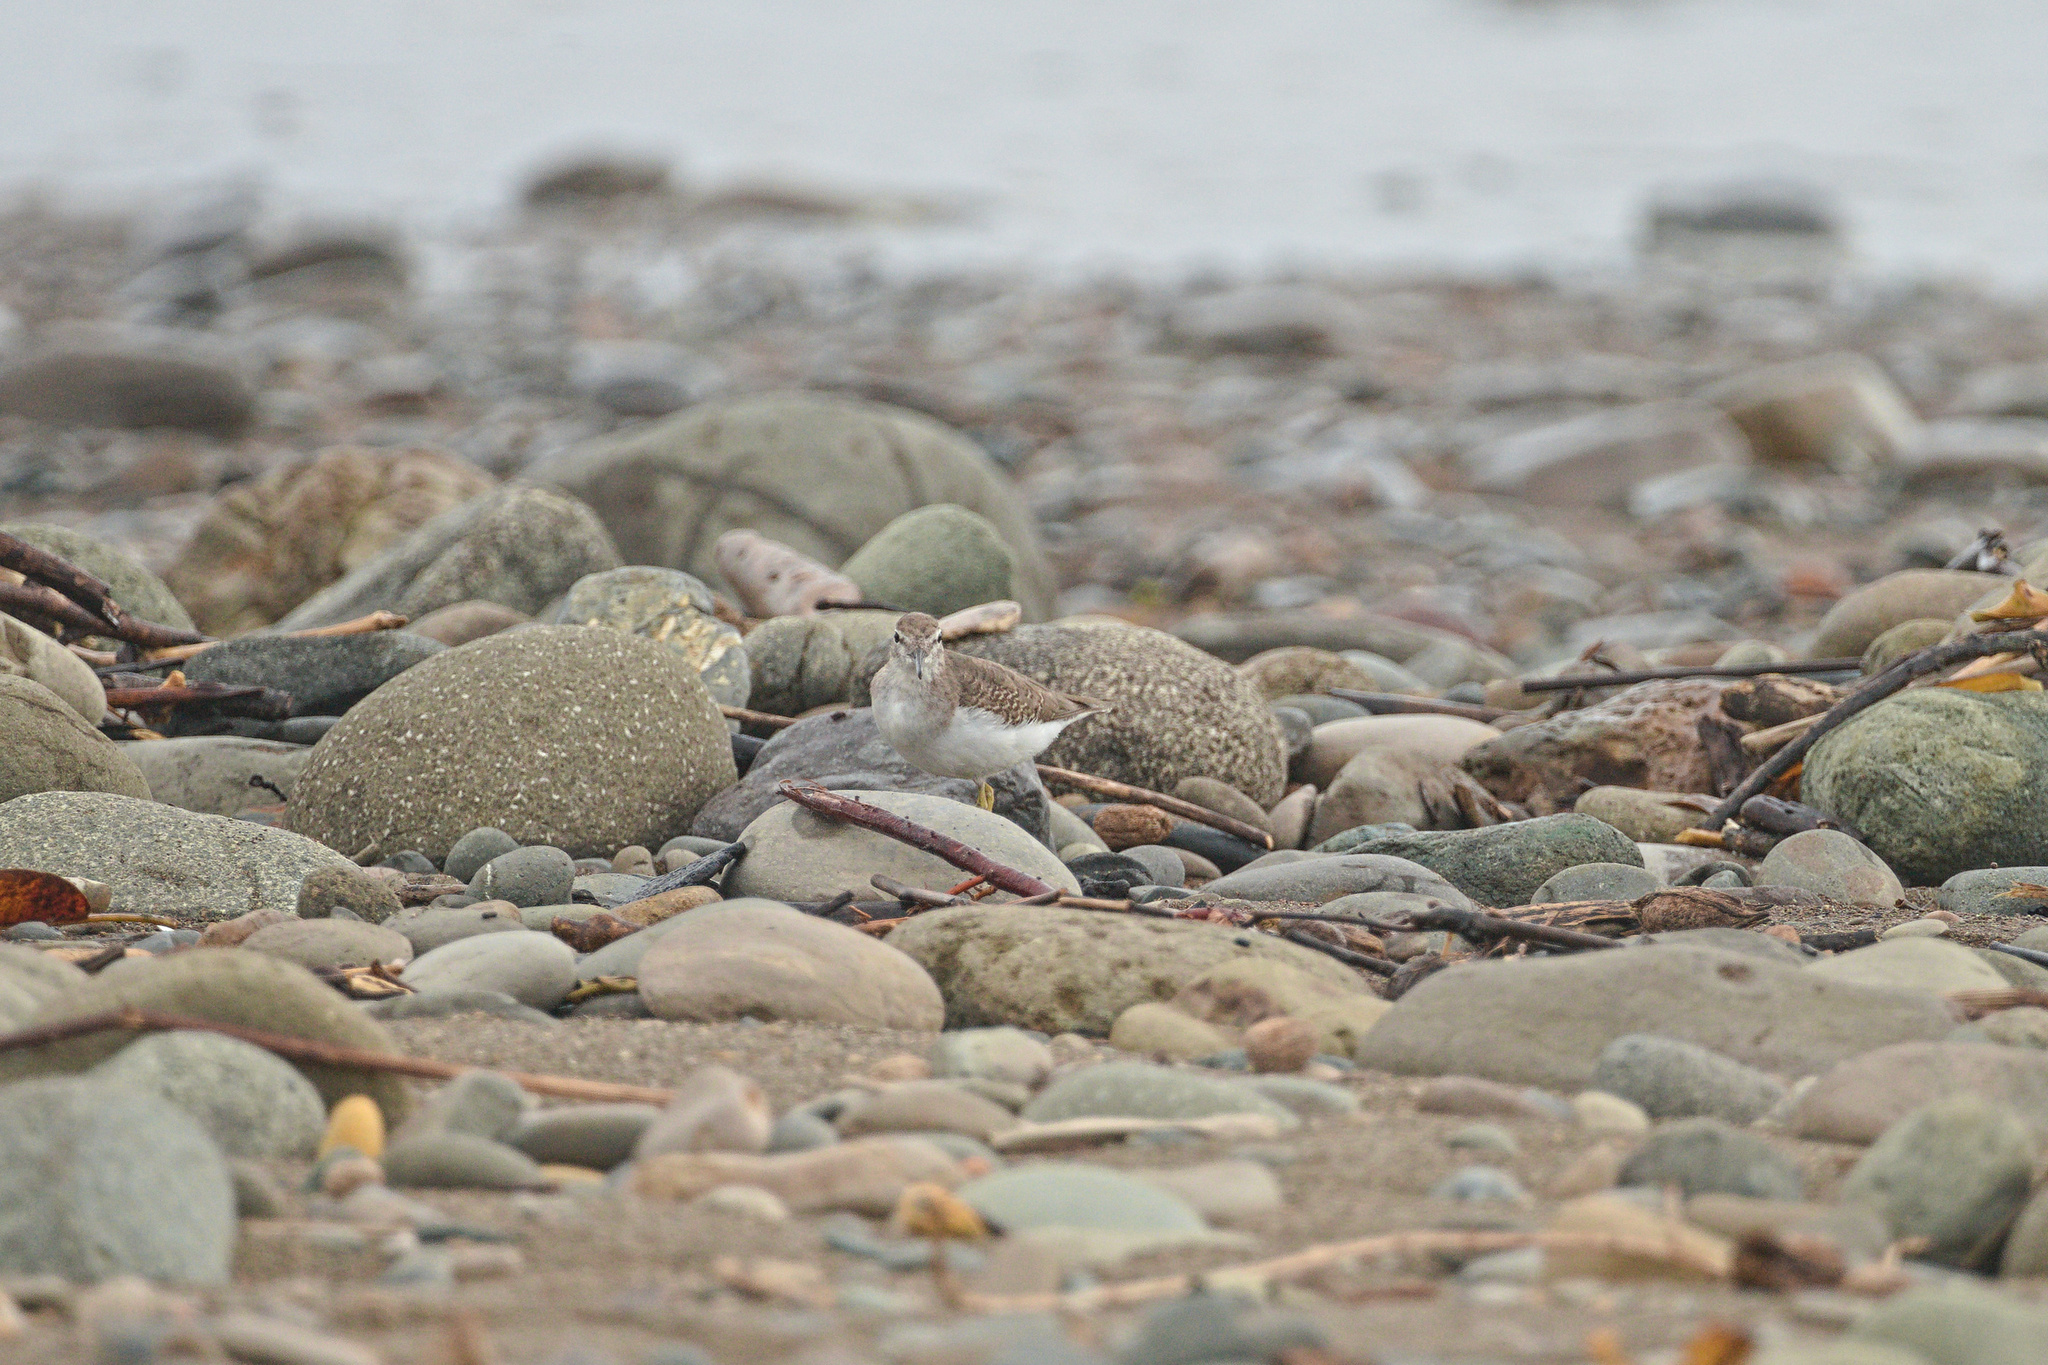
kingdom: Animalia
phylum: Chordata
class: Aves
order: Charadriiformes
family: Scolopacidae
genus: Actitis
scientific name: Actitis macularius
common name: Spotted sandpiper
